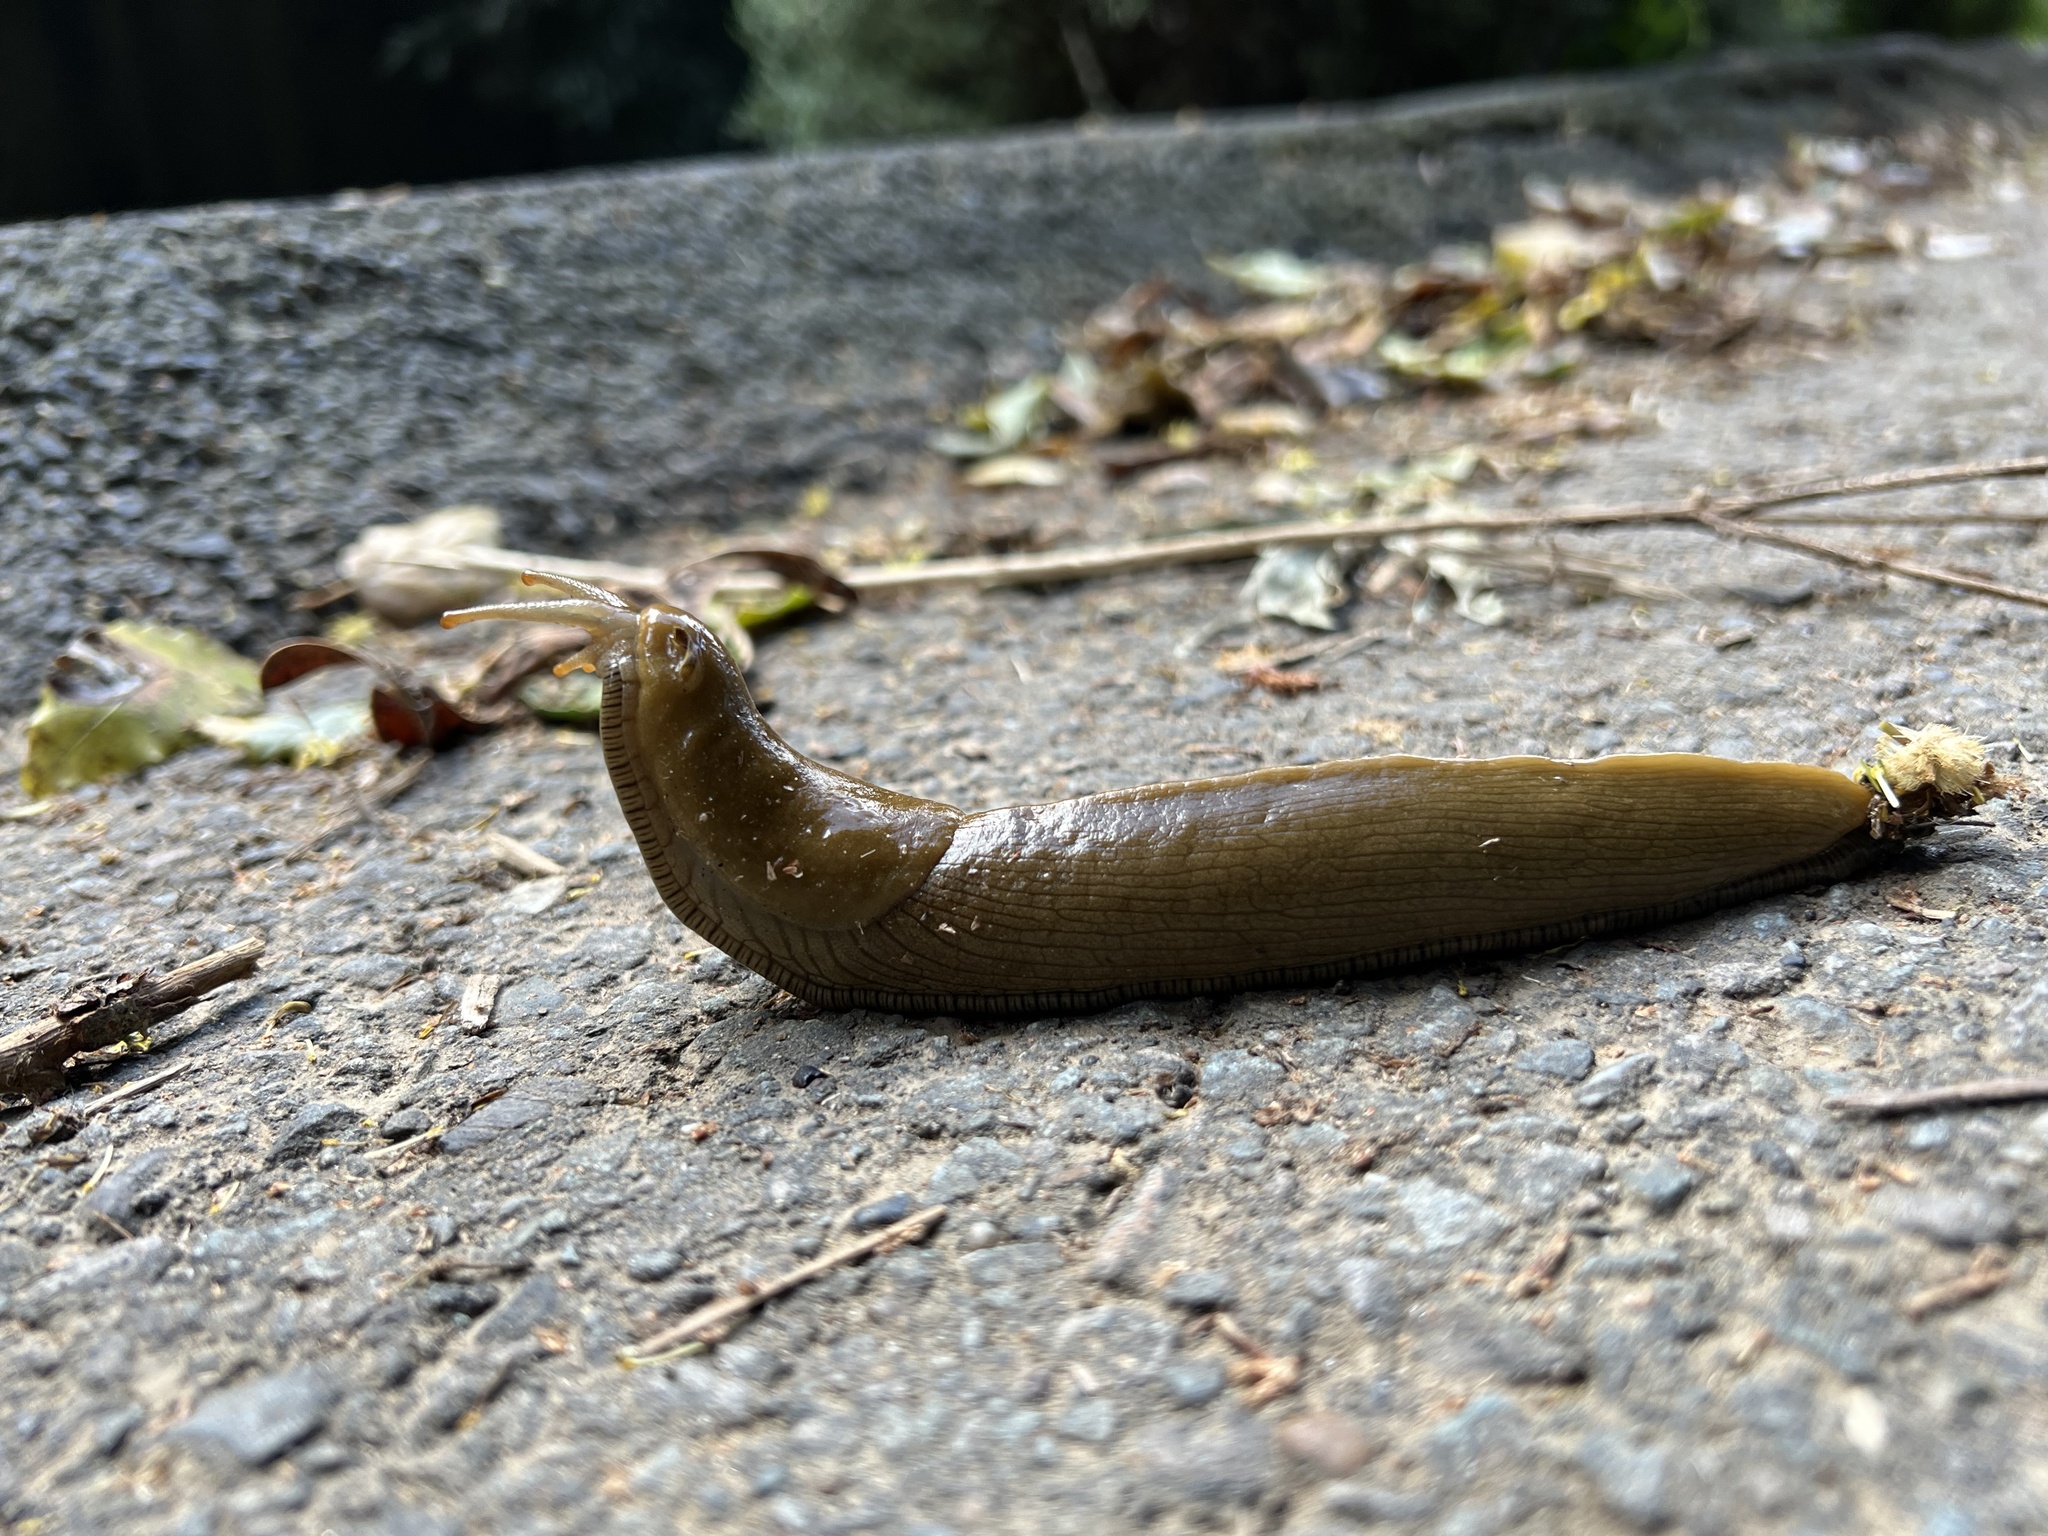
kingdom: Animalia
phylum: Mollusca
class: Gastropoda
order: Stylommatophora
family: Ariolimacidae
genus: Ariolimax
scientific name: Ariolimax buttoni
